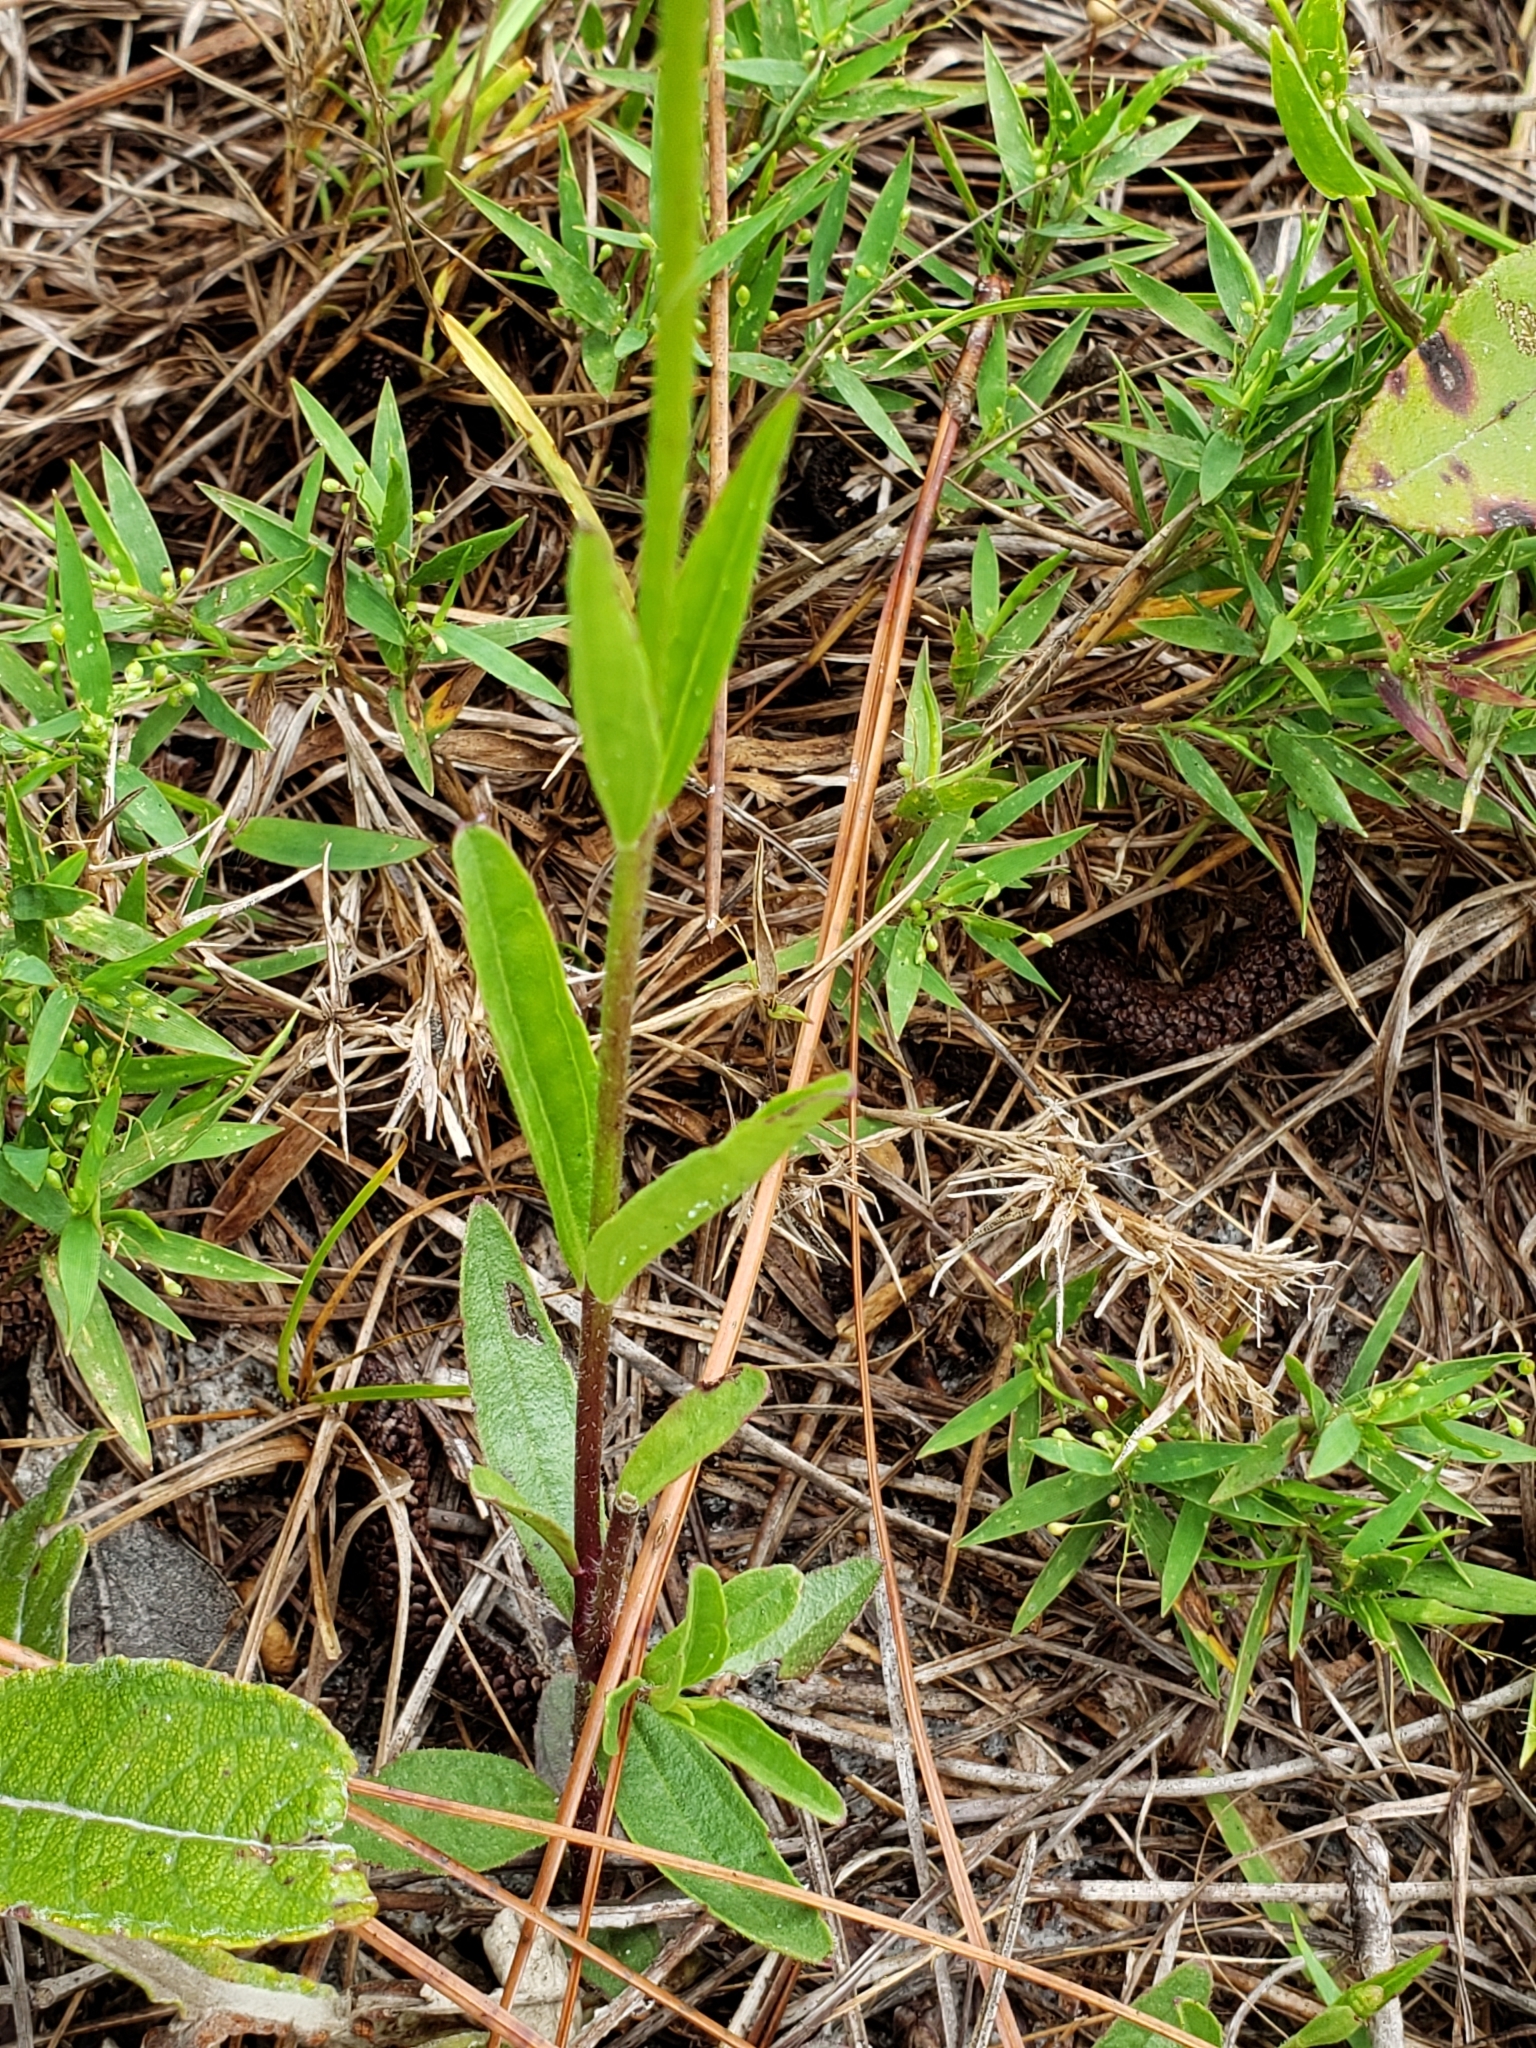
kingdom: Plantae
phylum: Tracheophyta
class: Magnoliopsida
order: Lamiales
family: Orobanchaceae
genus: Buchnera
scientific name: Buchnera floridana
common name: Florida bluehearts
